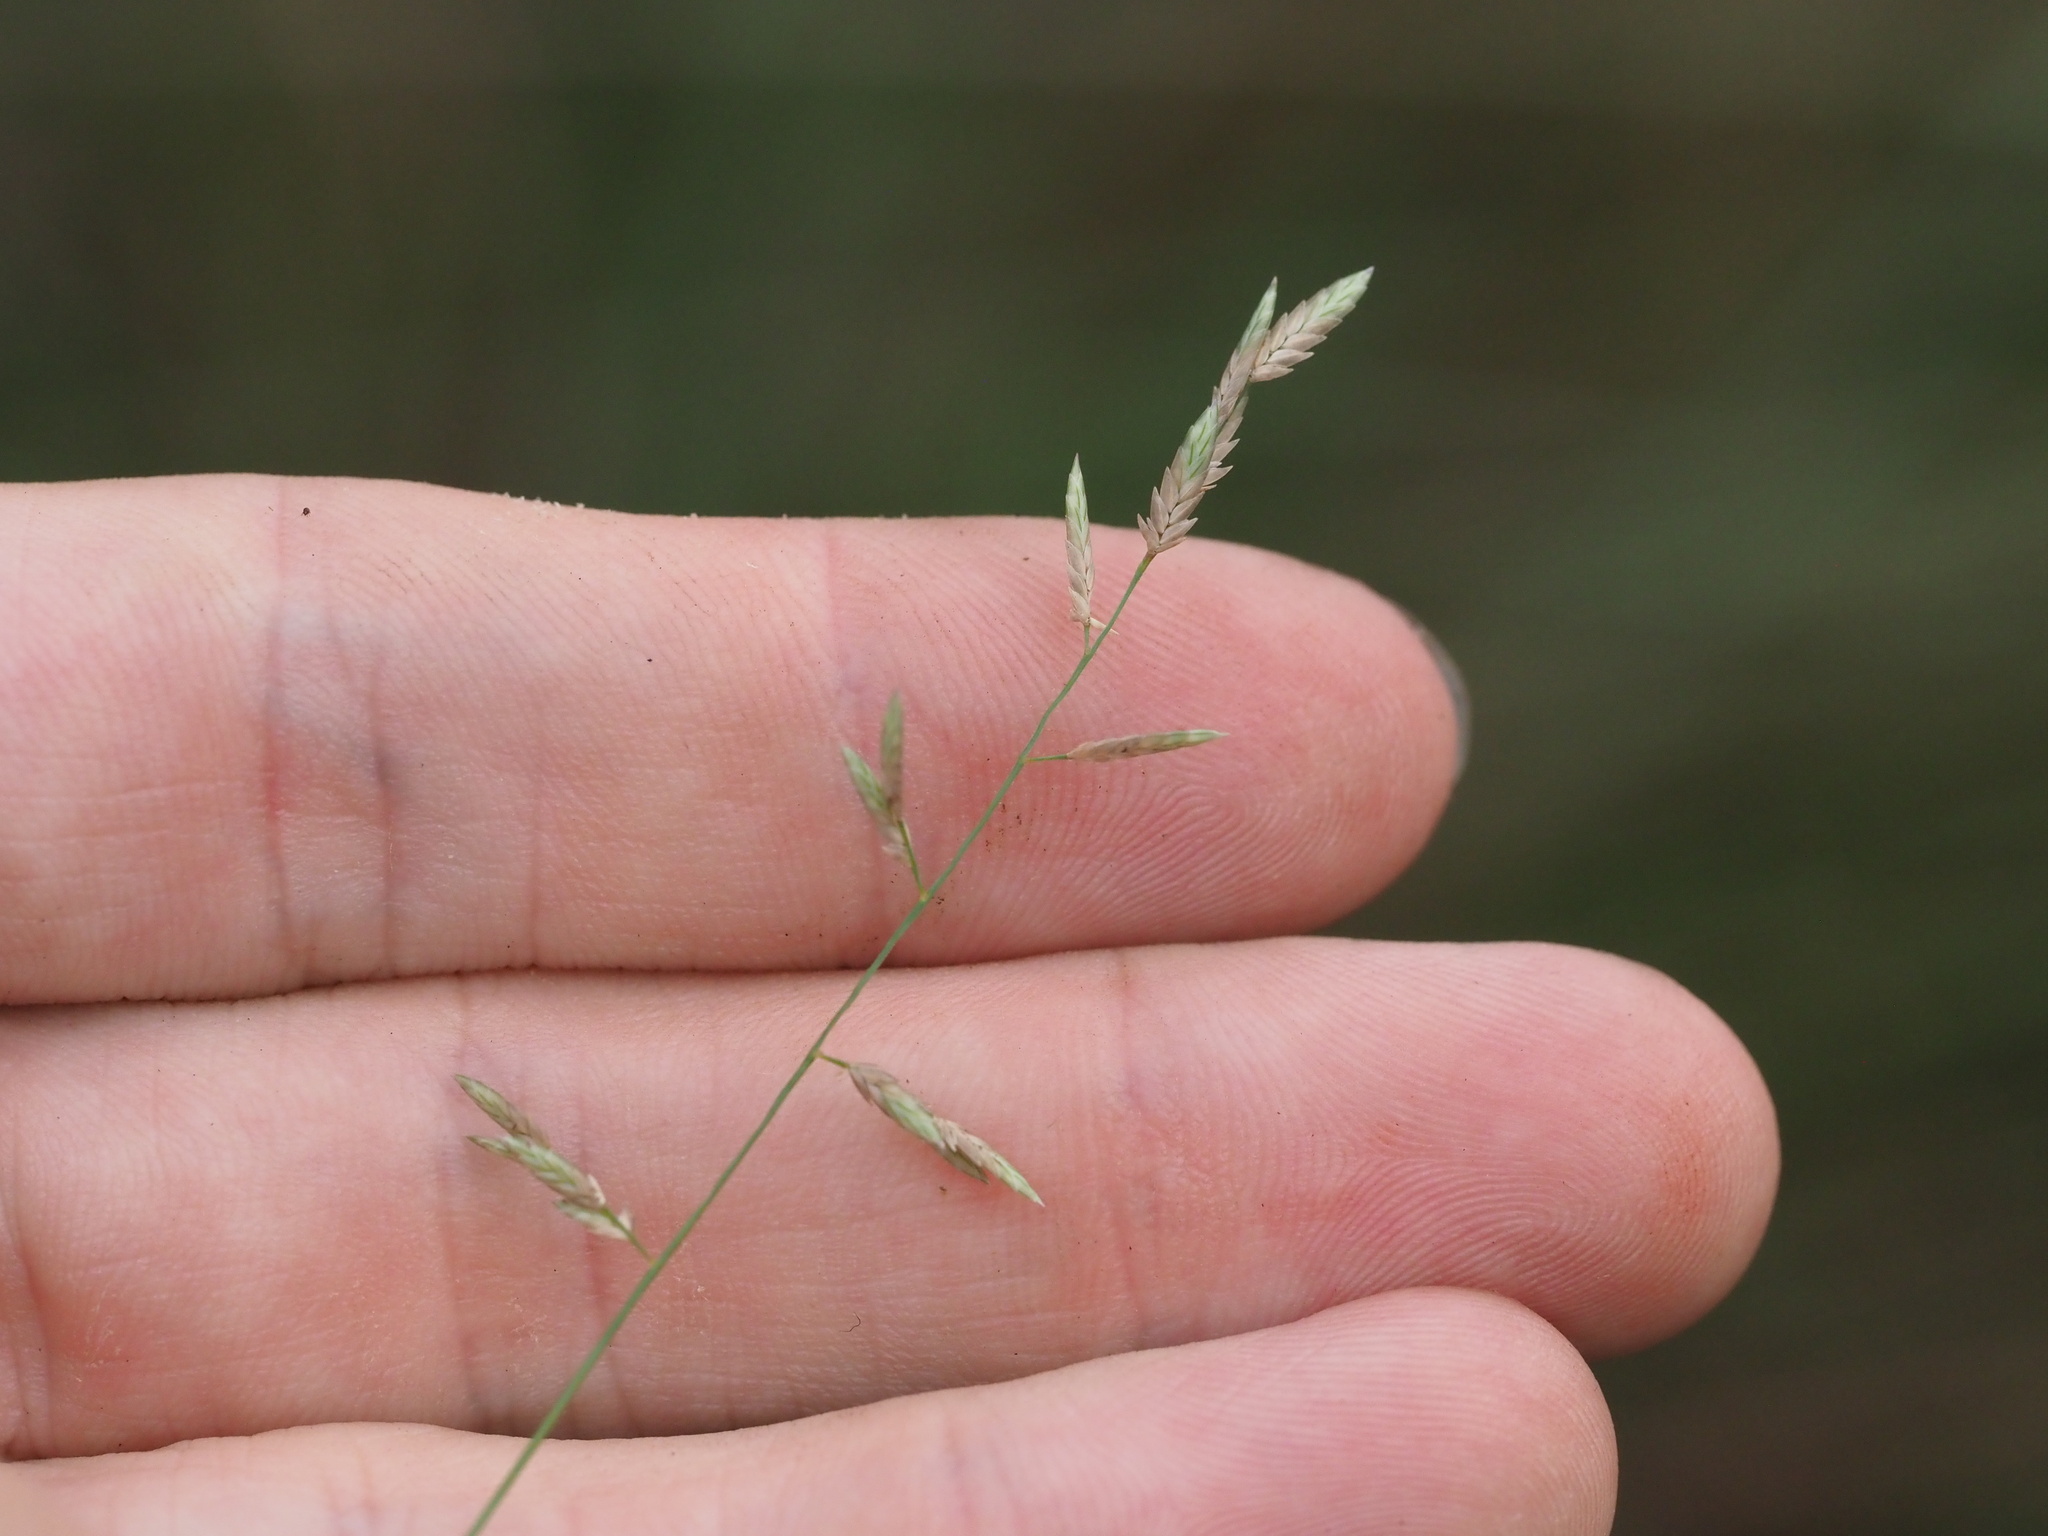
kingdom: Plantae
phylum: Tracheophyta
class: Liliopsida
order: Poales
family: Poaceae
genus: Eragrostis
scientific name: Eragrostis brownii
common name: Lovegrass
